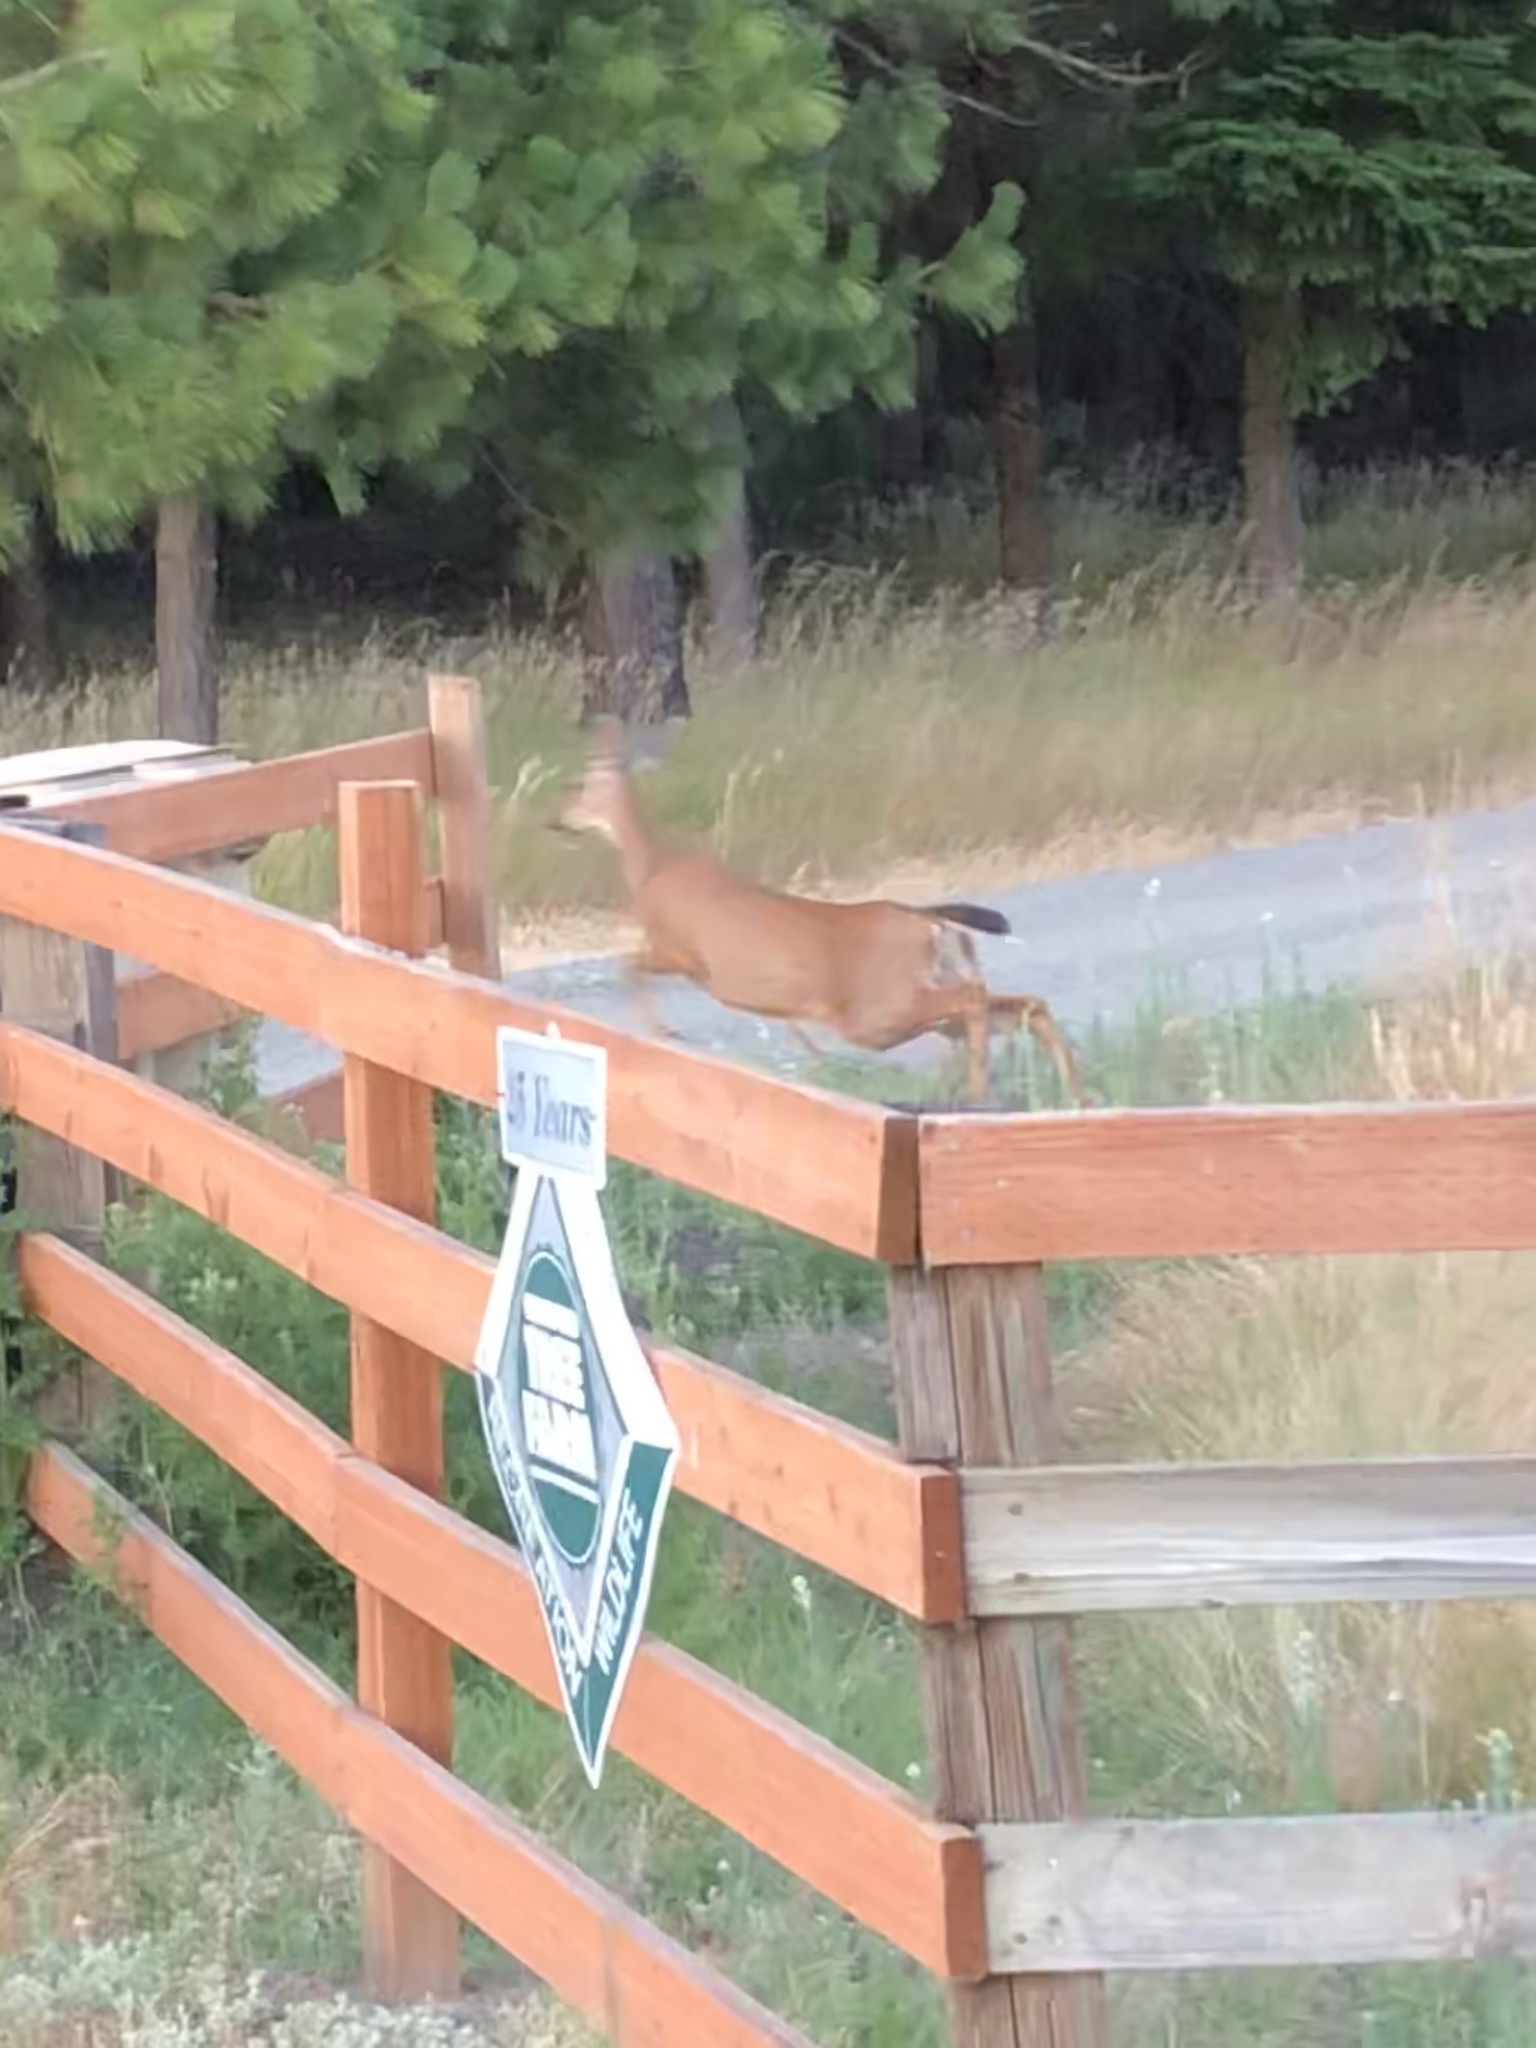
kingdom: Animalia
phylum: Chordata
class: Mammalia
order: Artiodactyla
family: Cervidae
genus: Odocoileus
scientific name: Odocoileus hemionus
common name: Mule deer
